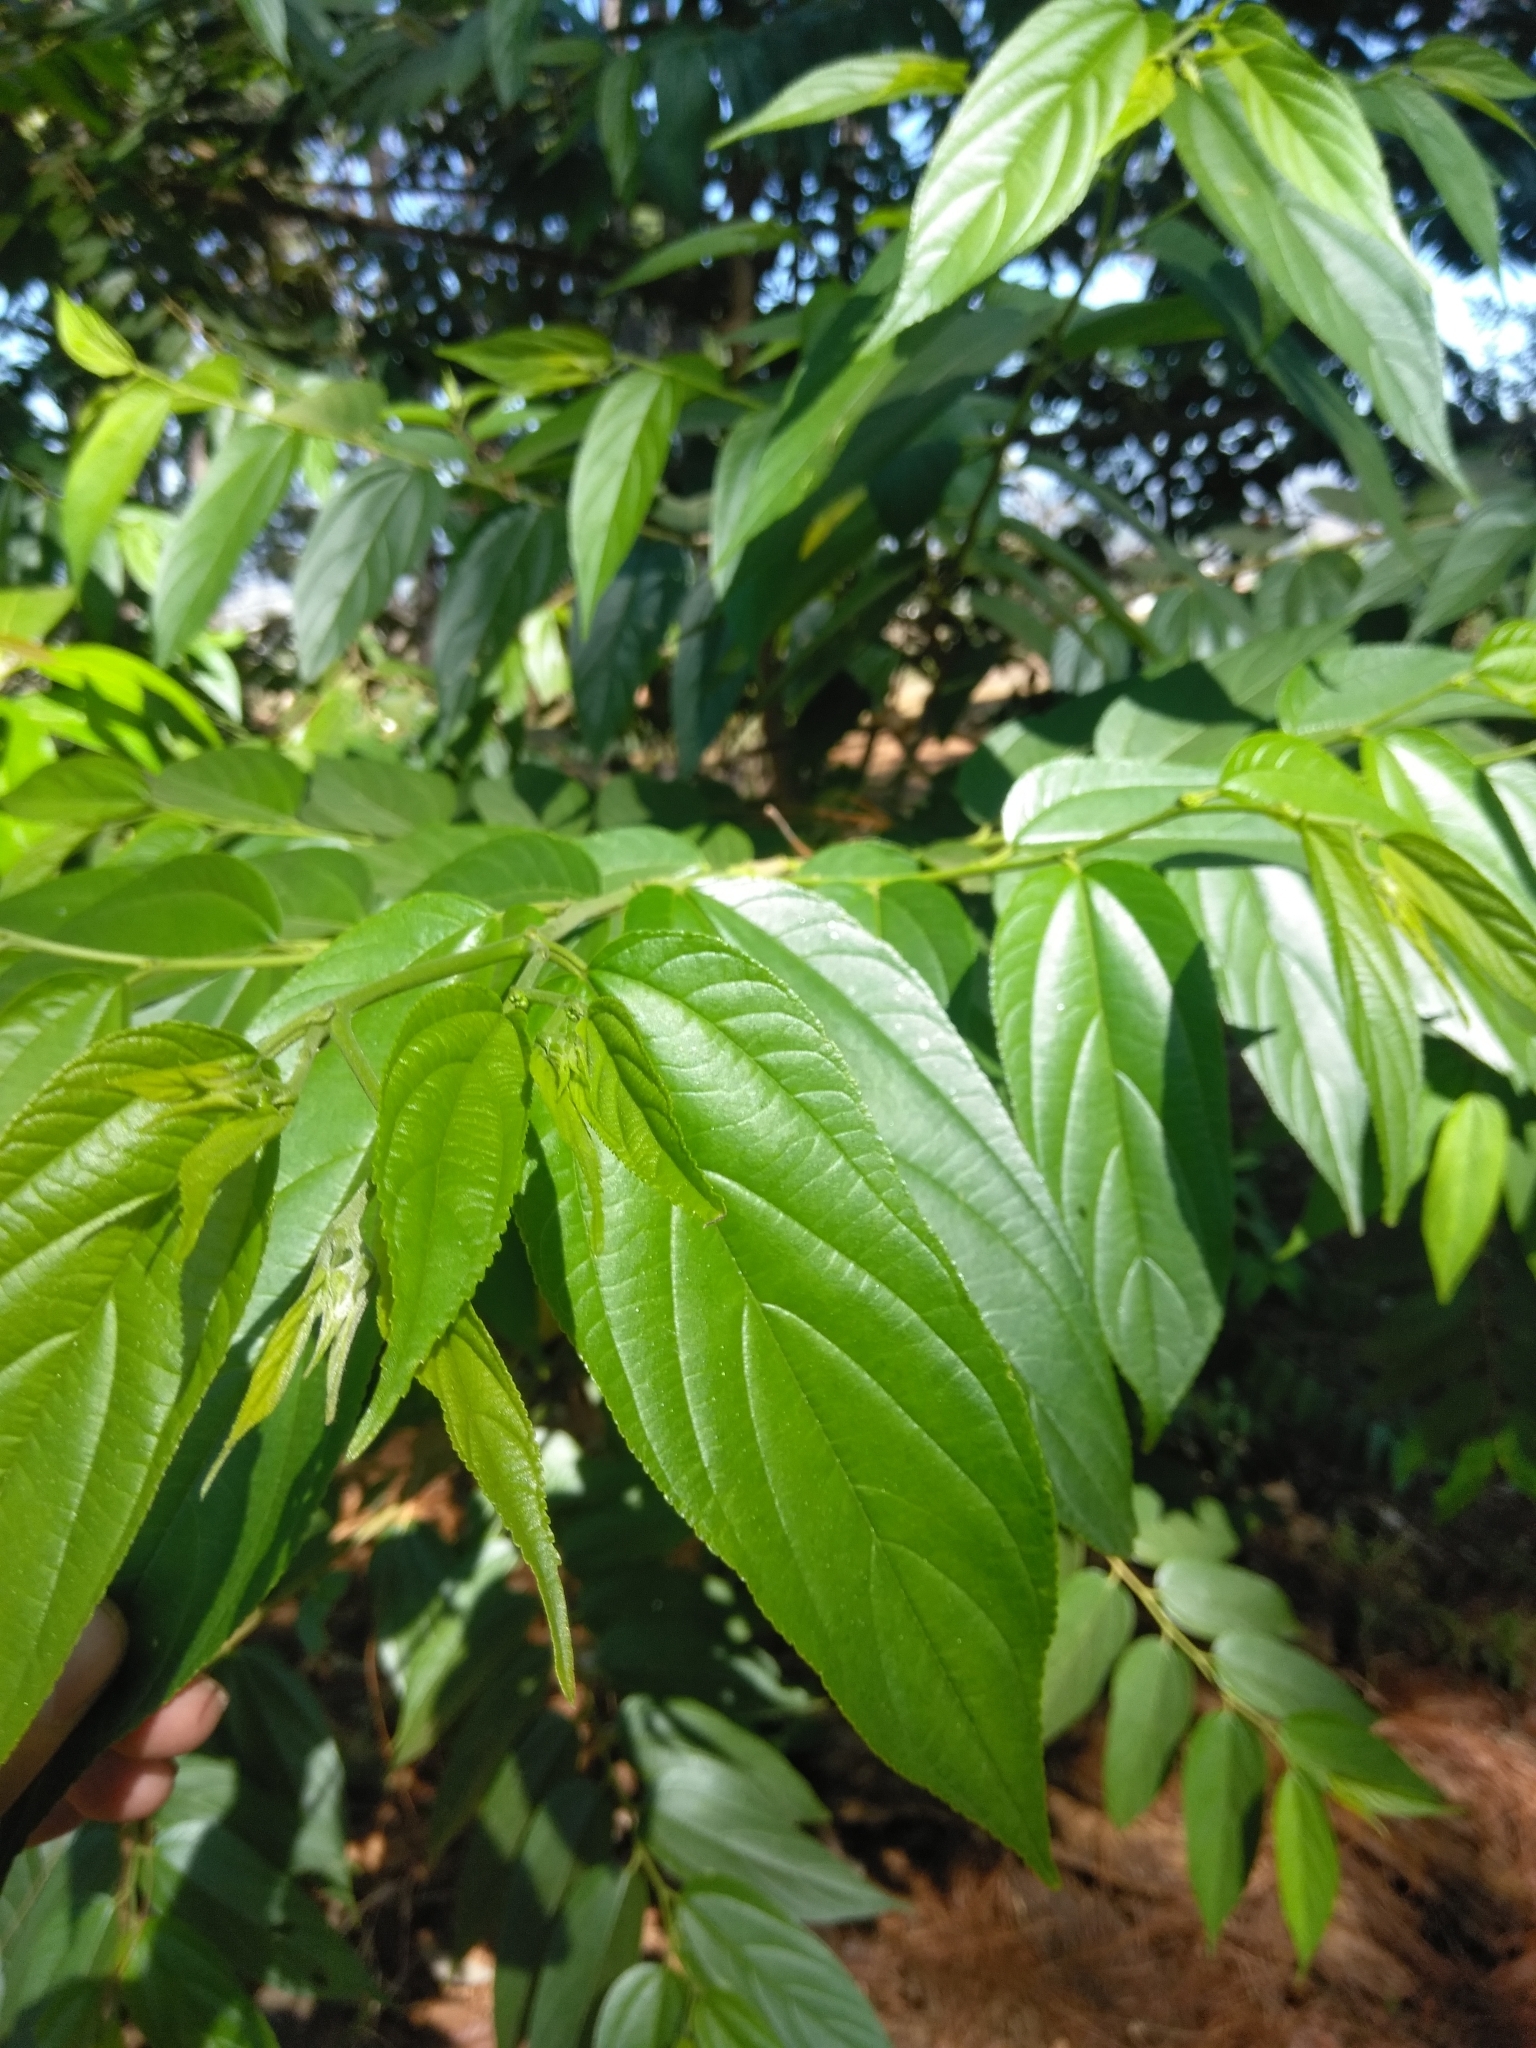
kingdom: Plantae
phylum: Tracheophyta
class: Magnoliopsida
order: Rosales
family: Cannabaceae
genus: Trema
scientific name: Trema micranthum
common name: Jamaican nettletree
